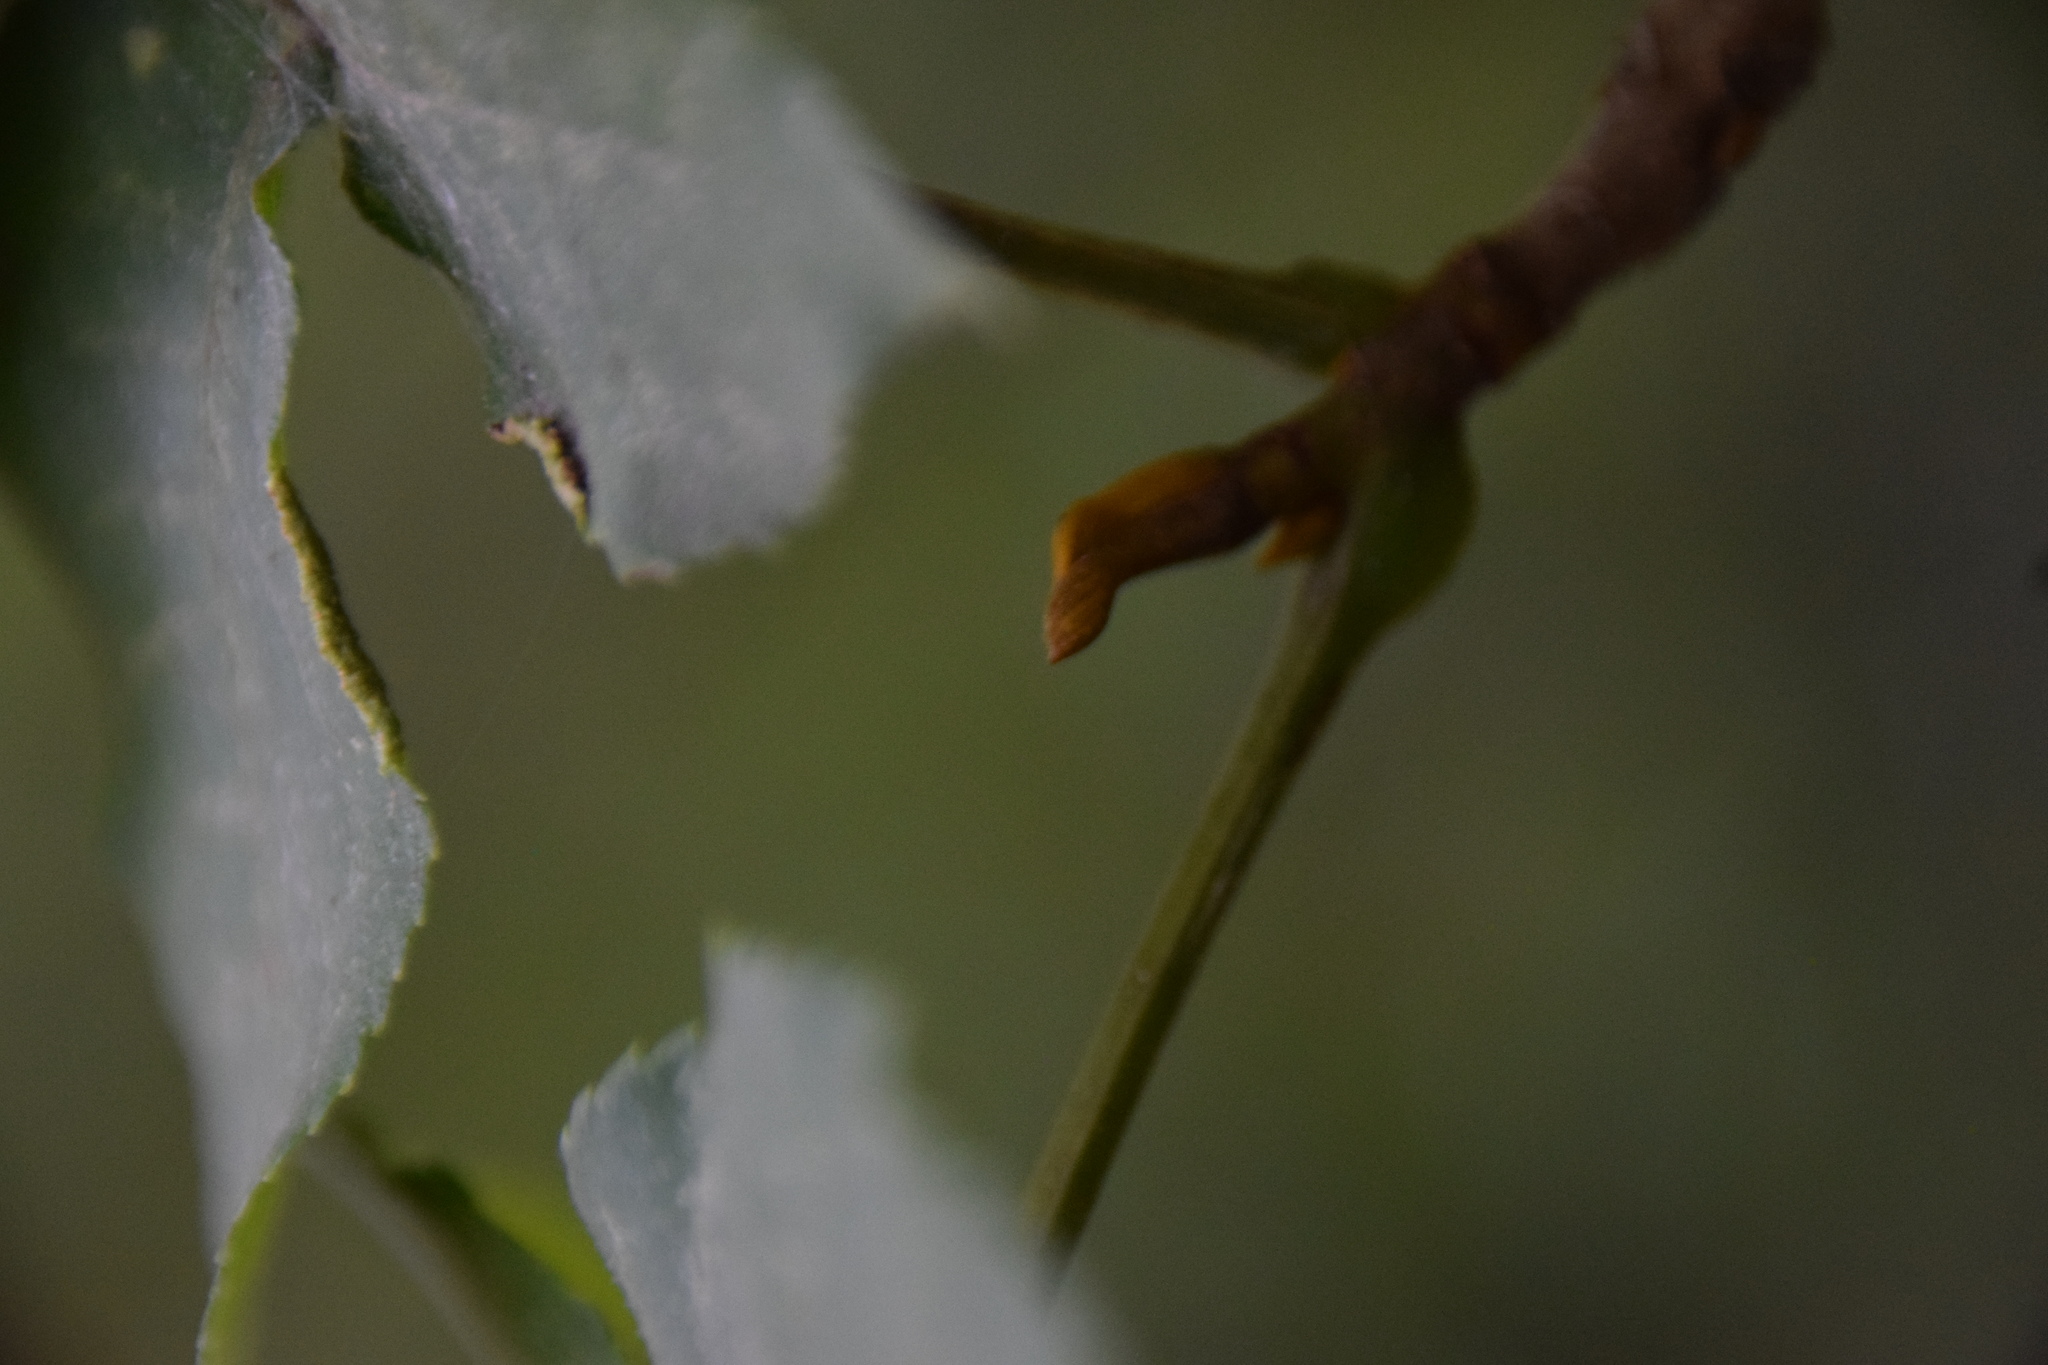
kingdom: Plantae
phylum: Tracheophyta
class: Magnoliopsida
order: Fagales
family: Juglandaceae
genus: Carya
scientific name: Carya cordiformis
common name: Bitternut hickory
